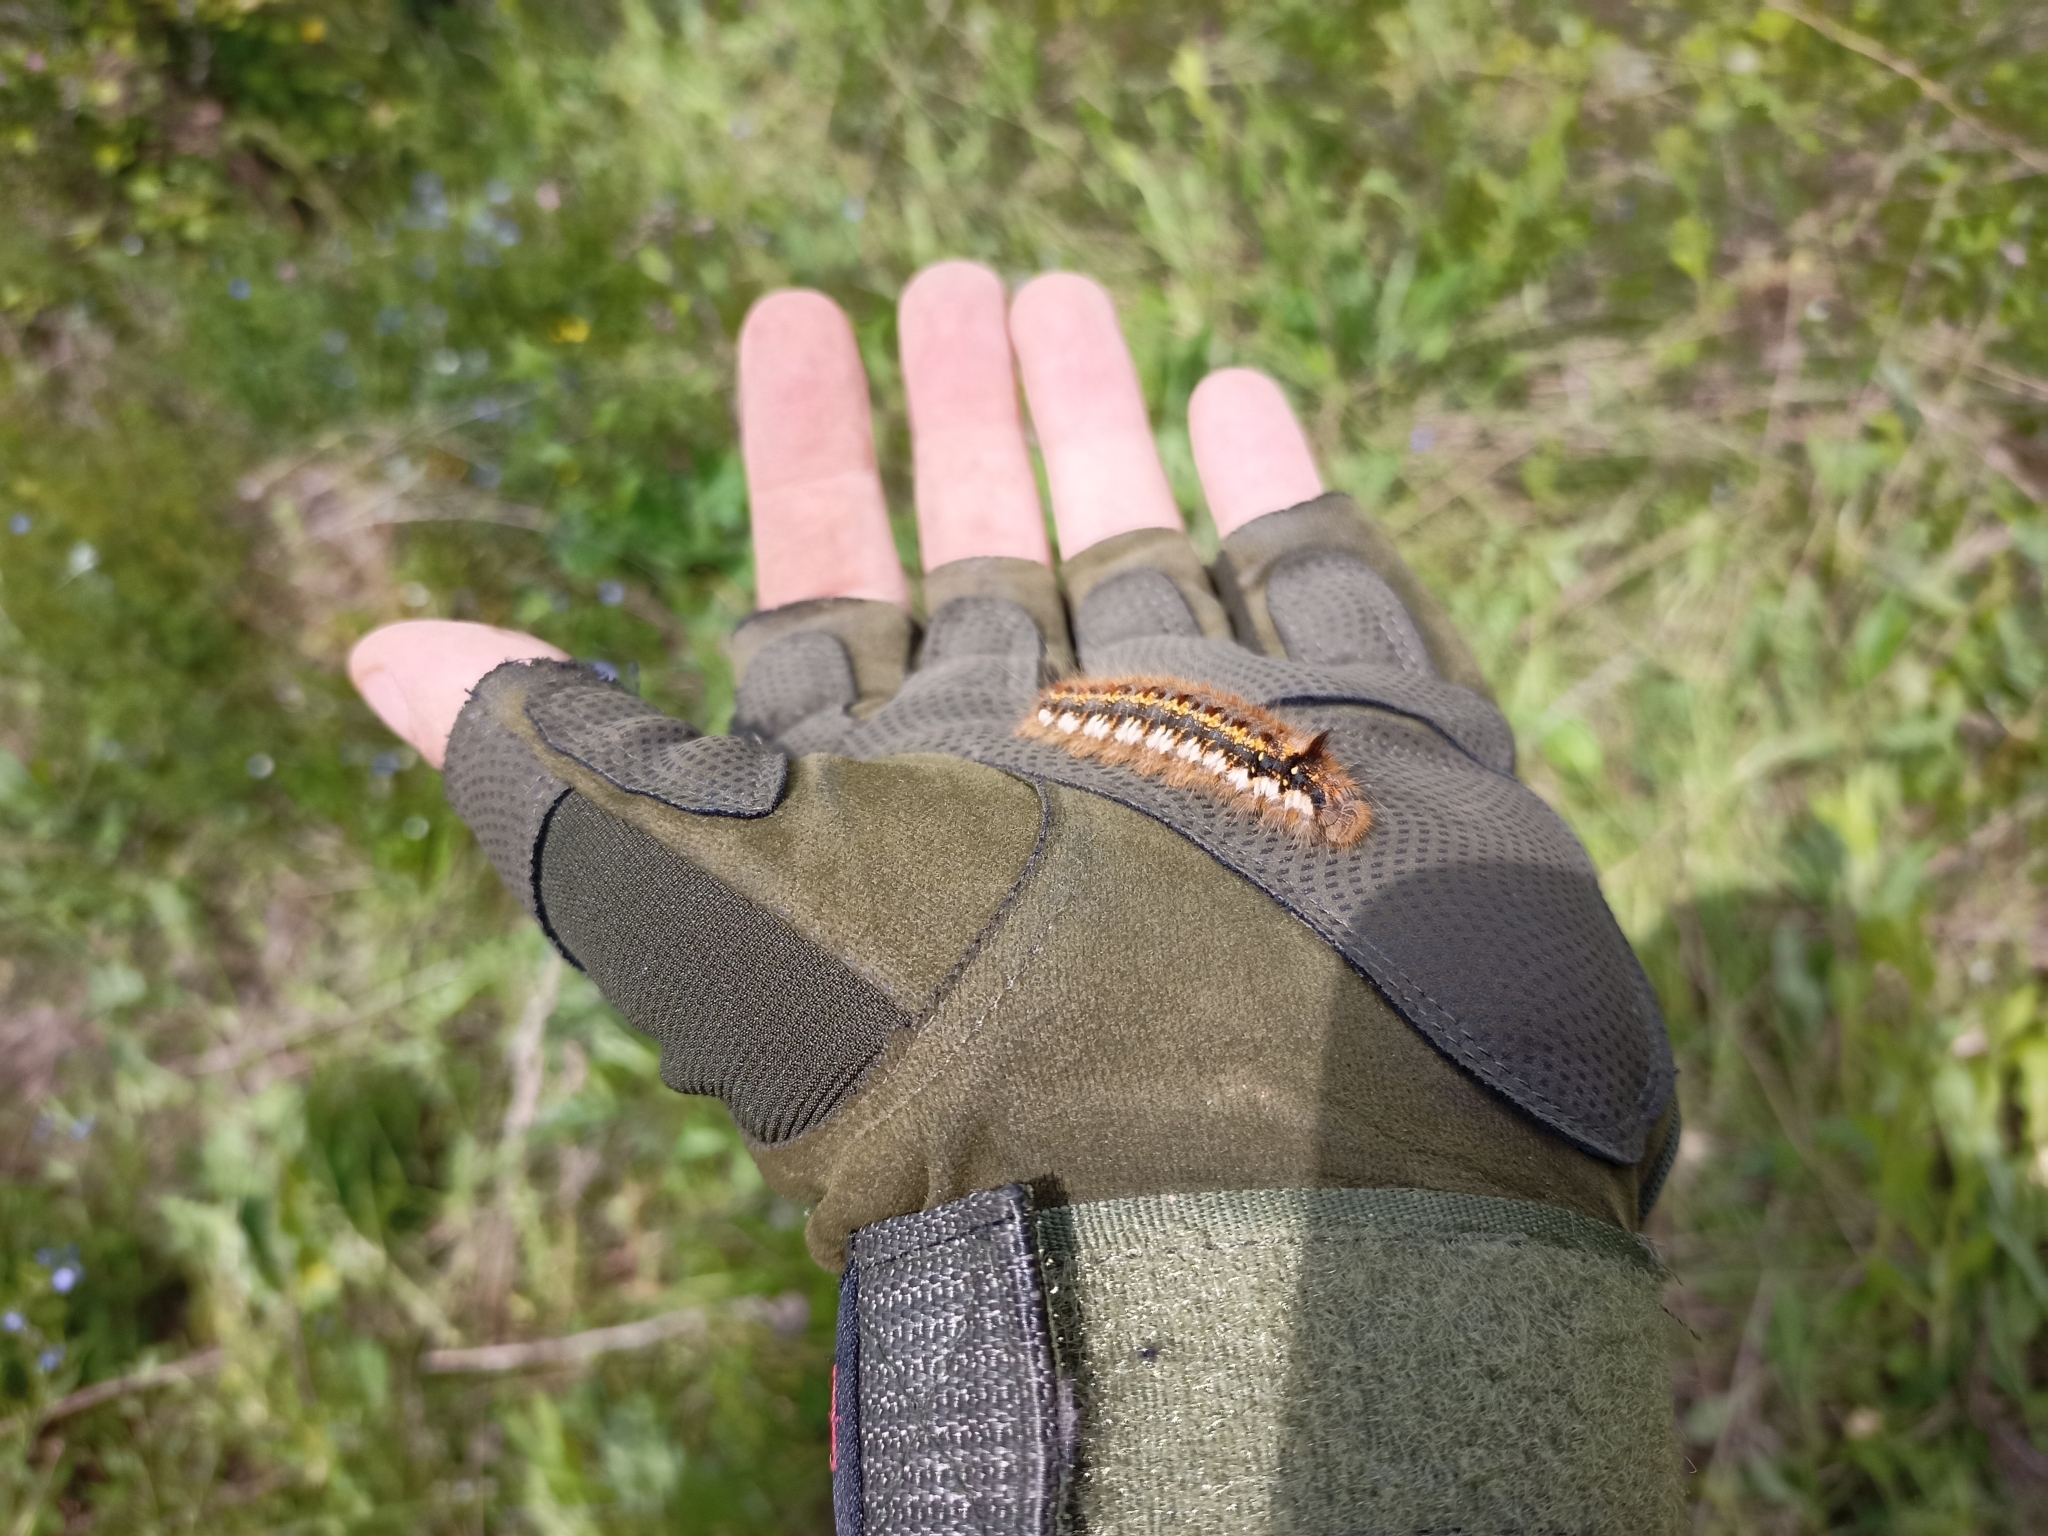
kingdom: Animalia
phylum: Arthropoda
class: Insecta
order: Lepidoptera
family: Lasiocampidae
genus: Euthrix
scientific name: Euthrix potatoria
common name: Drinker
